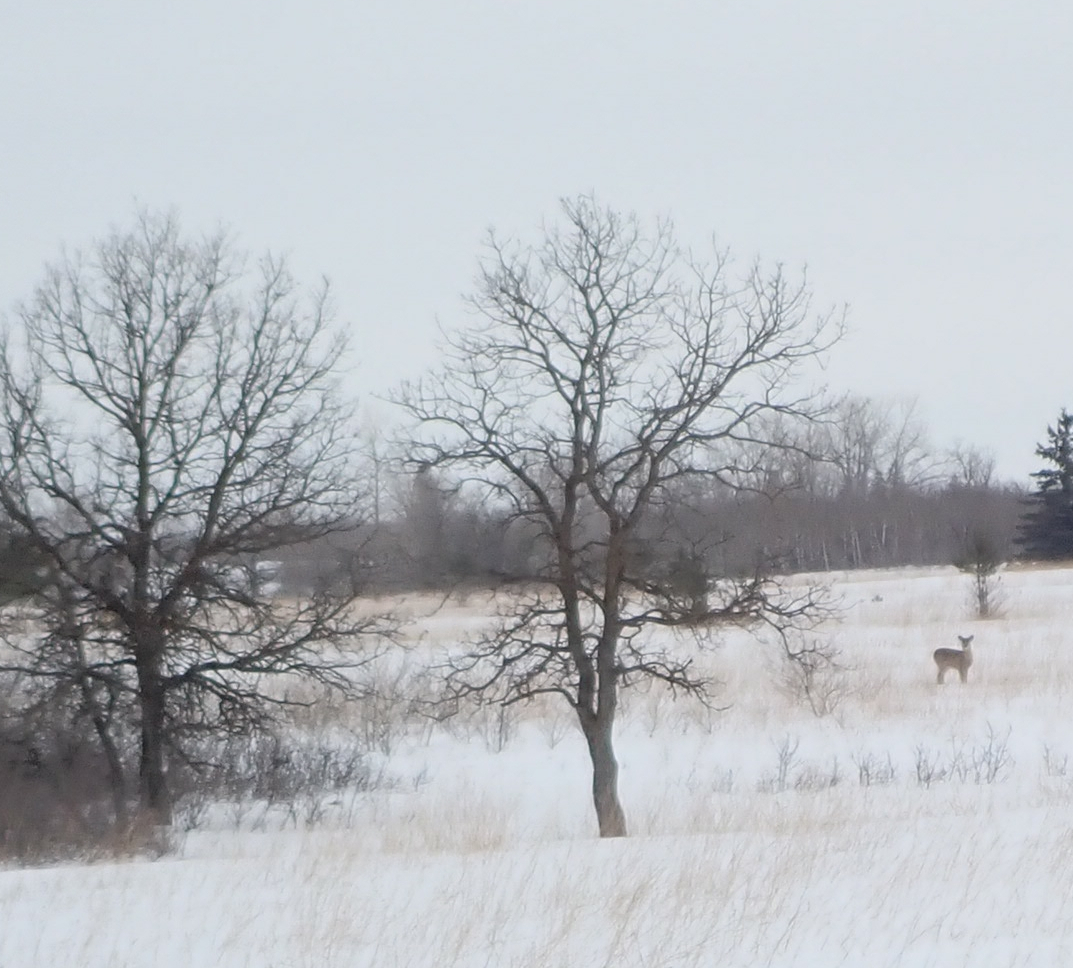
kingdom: Plantae
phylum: Tracheophyta
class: Magnoliopsida
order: Fagales
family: Fagaceae
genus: Quercus
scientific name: Quercus macrocarpa
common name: Bur oak
